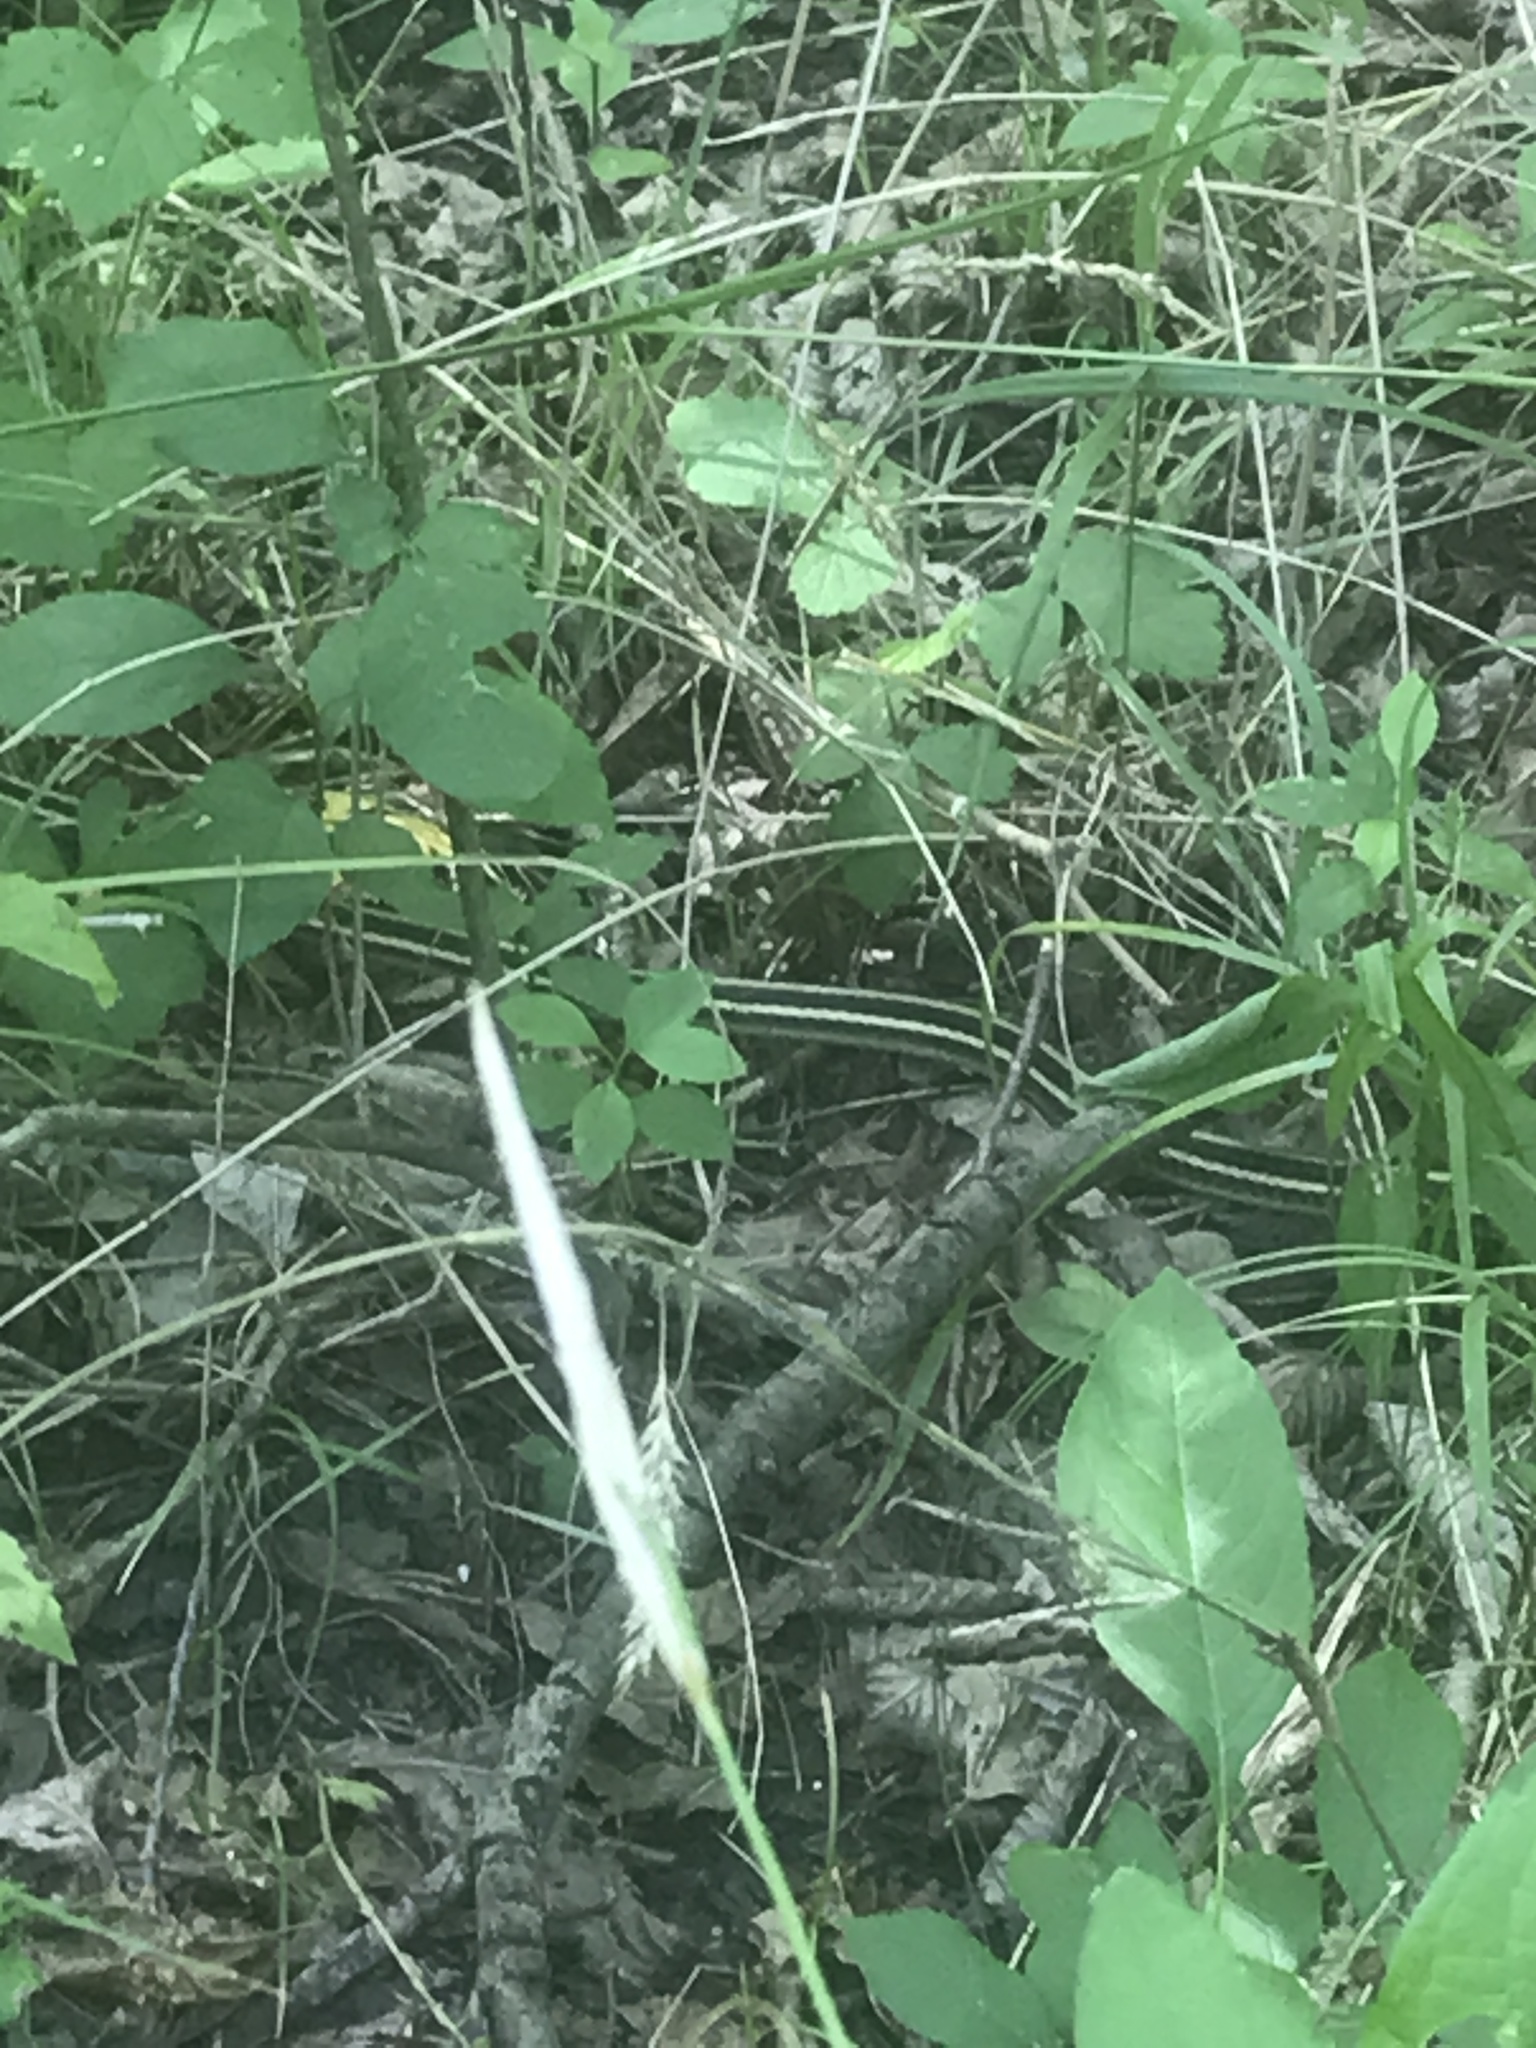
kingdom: Animalia
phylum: Chordata
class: Squamata
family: Colubridae
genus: Thamnophis
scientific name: Thamnophis proximus
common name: Western ribbon snake
